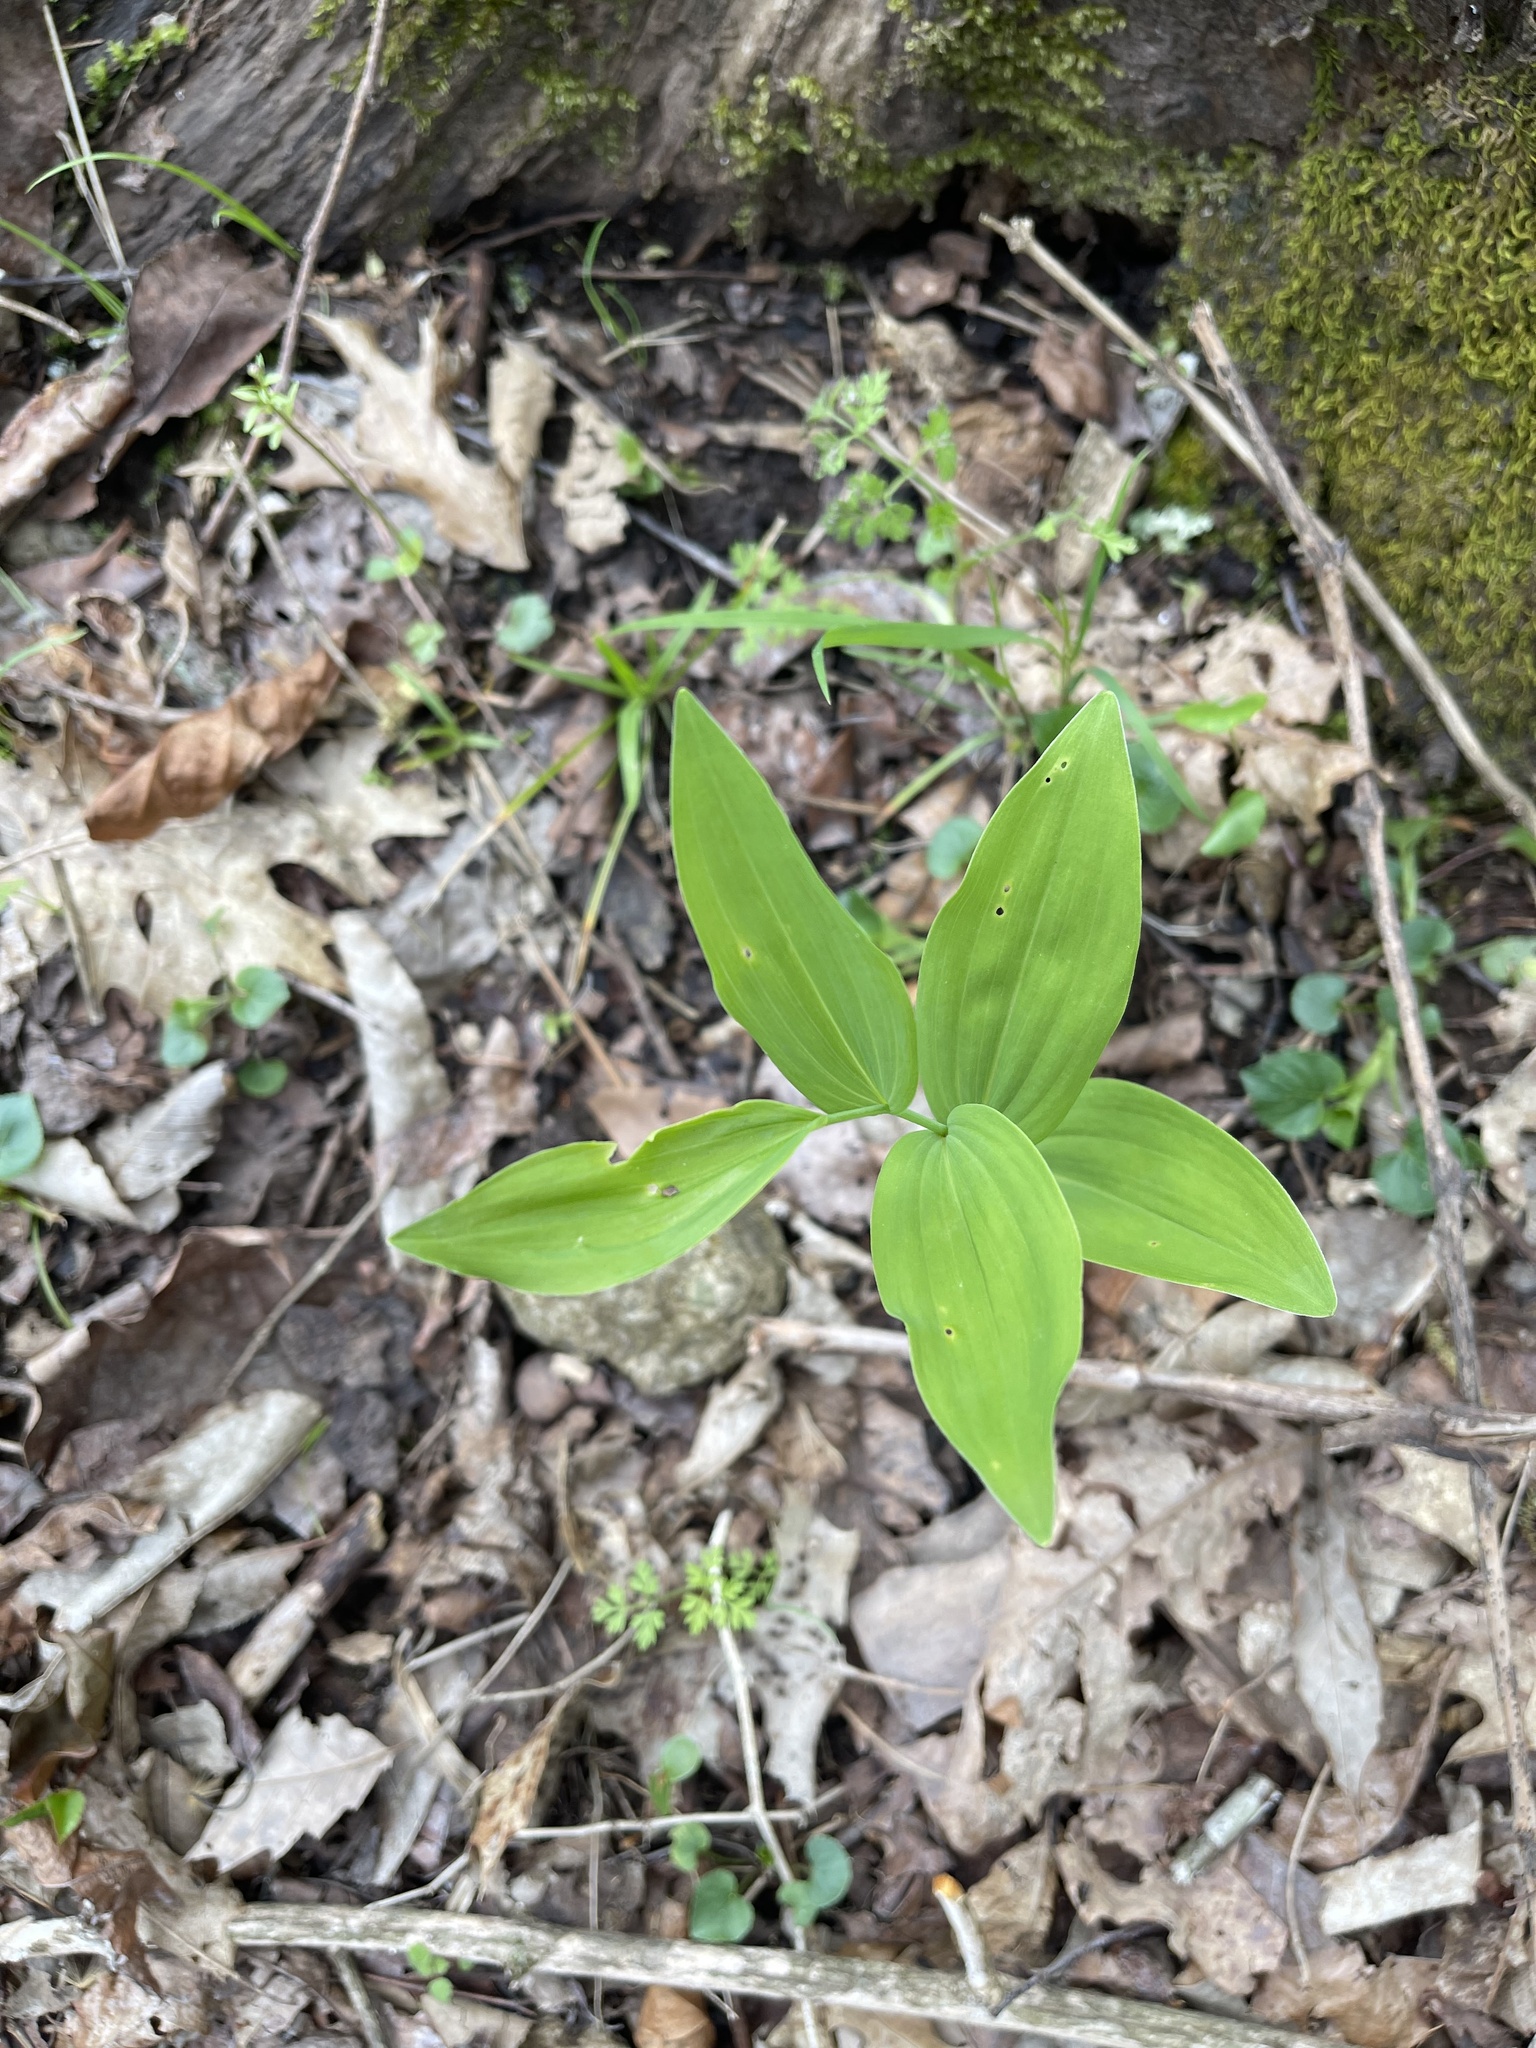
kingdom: Plantae
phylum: Tracheophyta
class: Liliopsida
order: Asparagales
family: Asparagaceae
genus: Polygonatum
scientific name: Polygonatum biflorum
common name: American solomon's-seal
